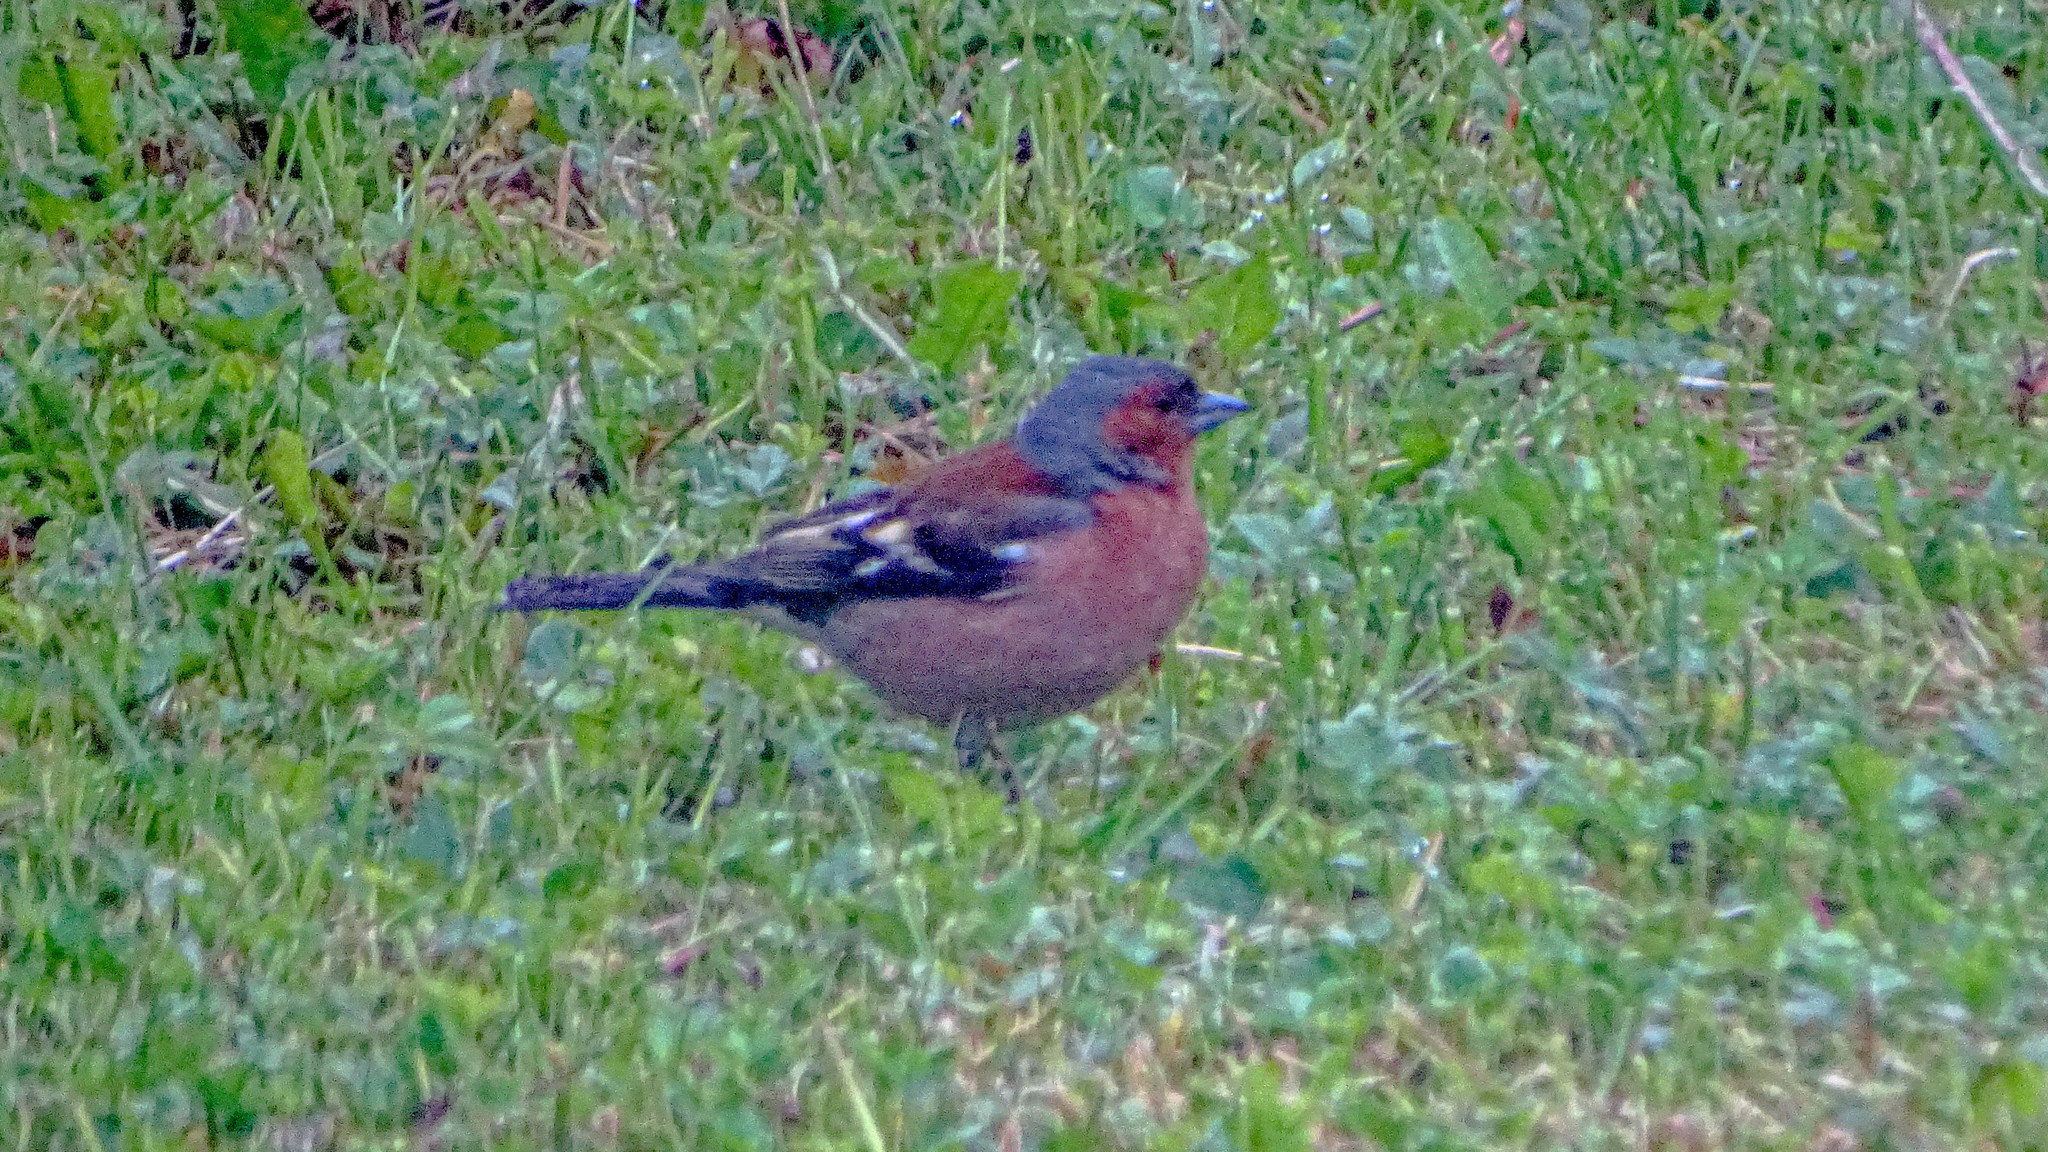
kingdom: Animalia
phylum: Chordata
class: Aves
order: Passeriformes
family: Fringillidae
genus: Fringilla
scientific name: Fringilla coelebs
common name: Common chaffinch
